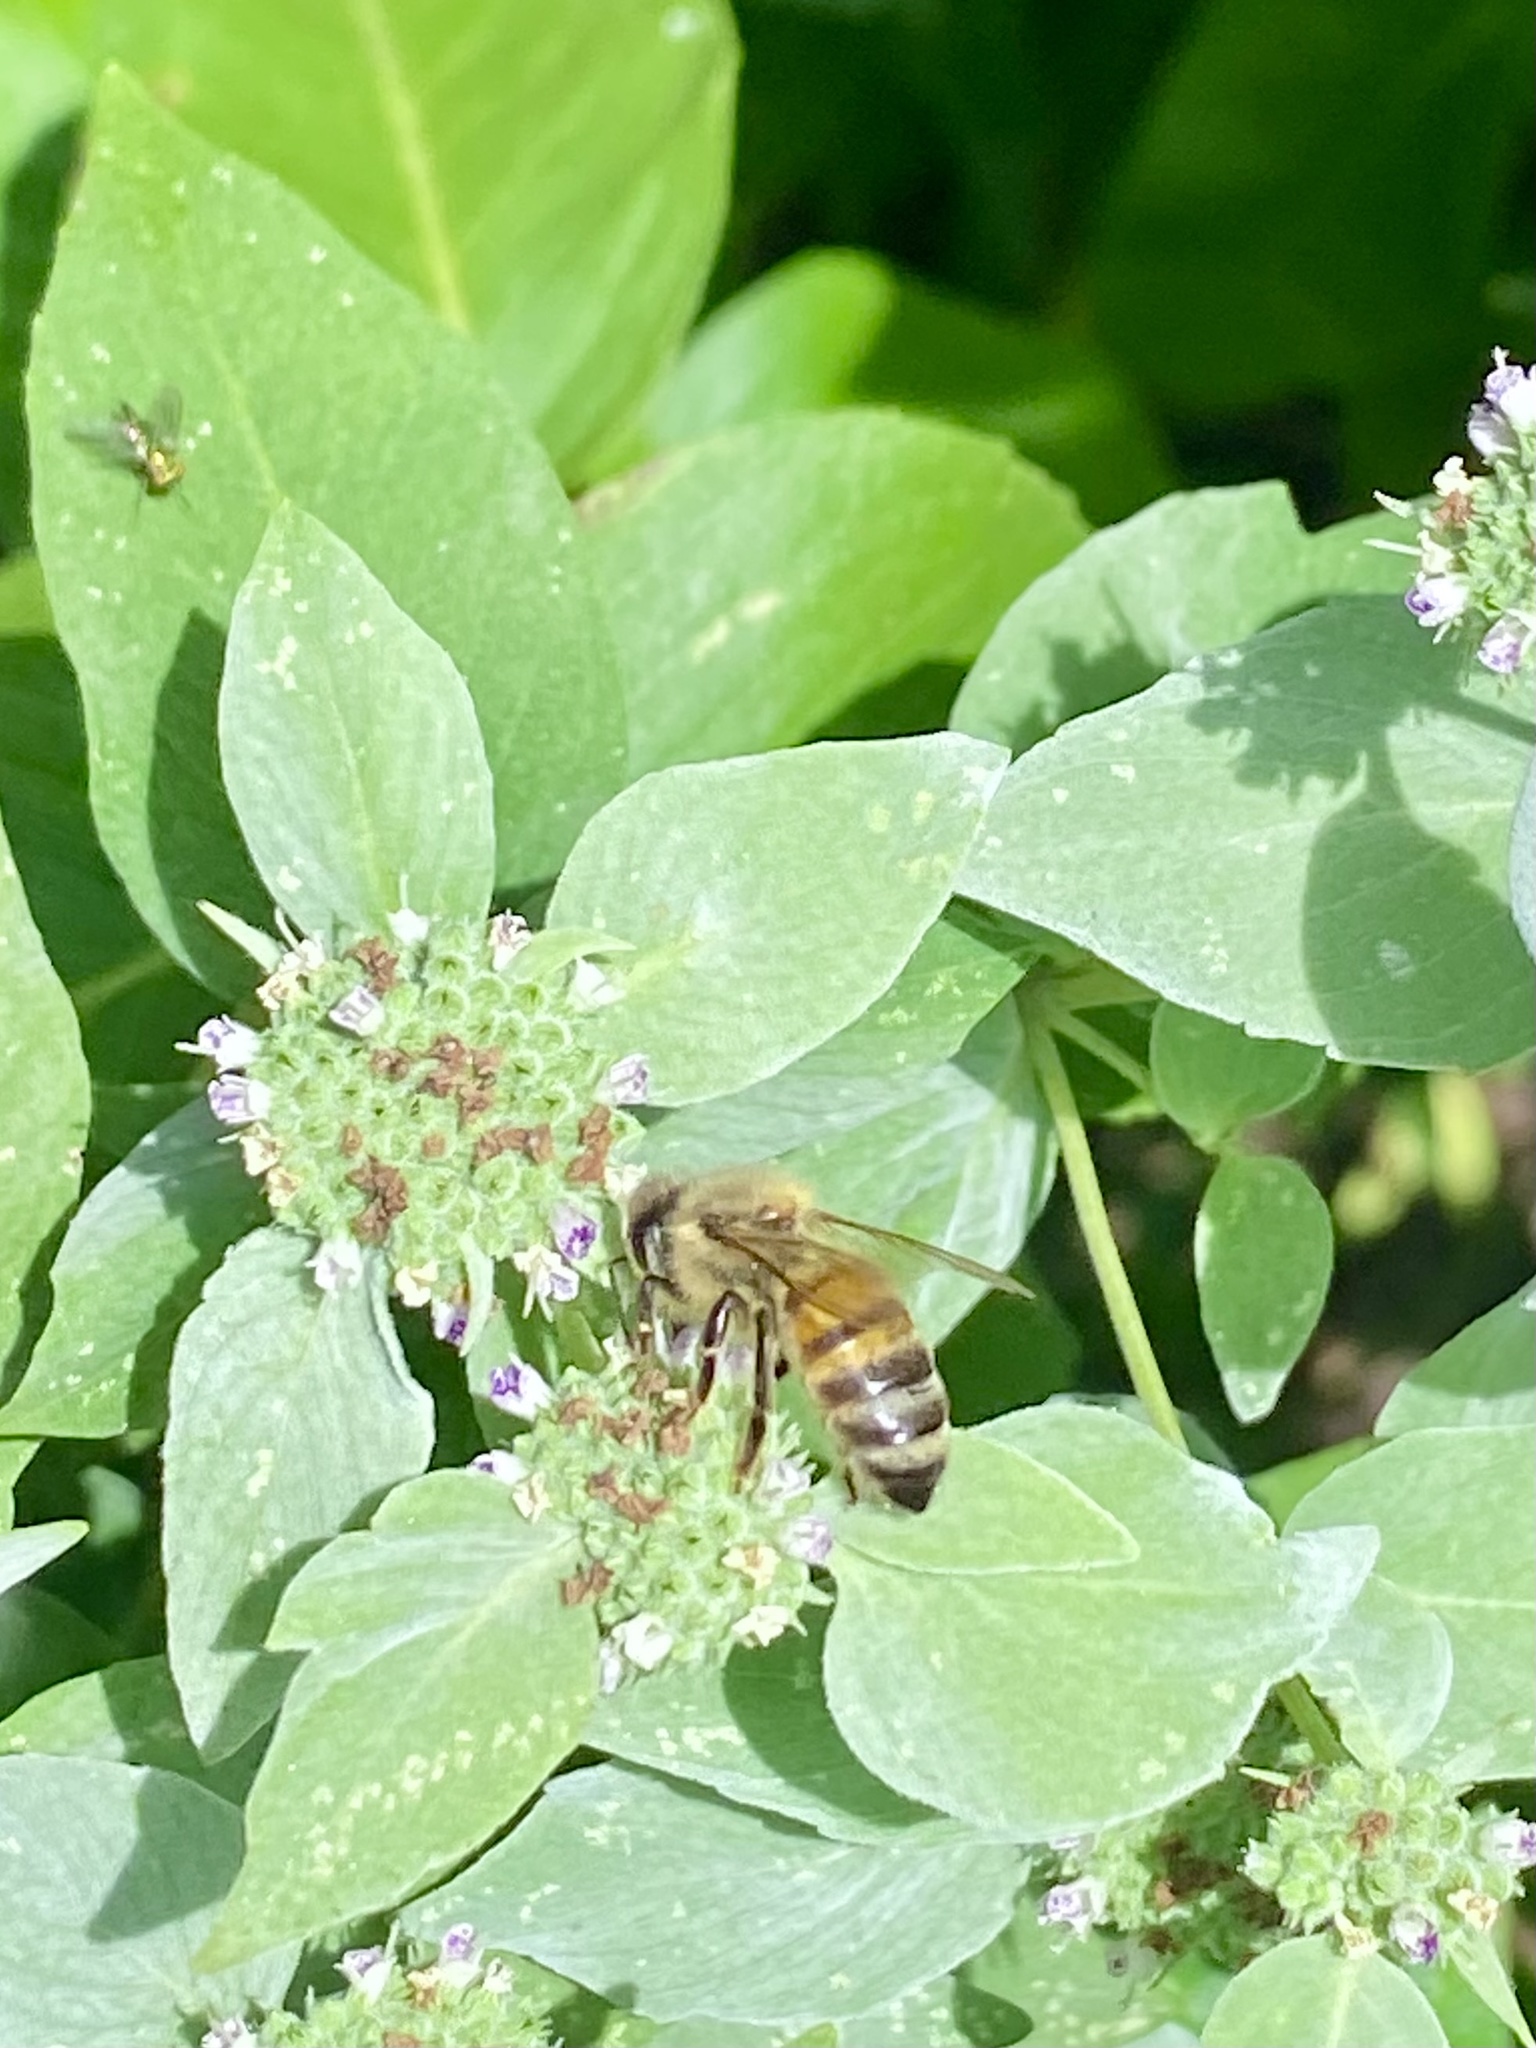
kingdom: Animalia
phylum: Arthropoda
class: Insecta
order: Hymenoptera
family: Apidae
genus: Apis
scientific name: Apis mellifera
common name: Honey bee
